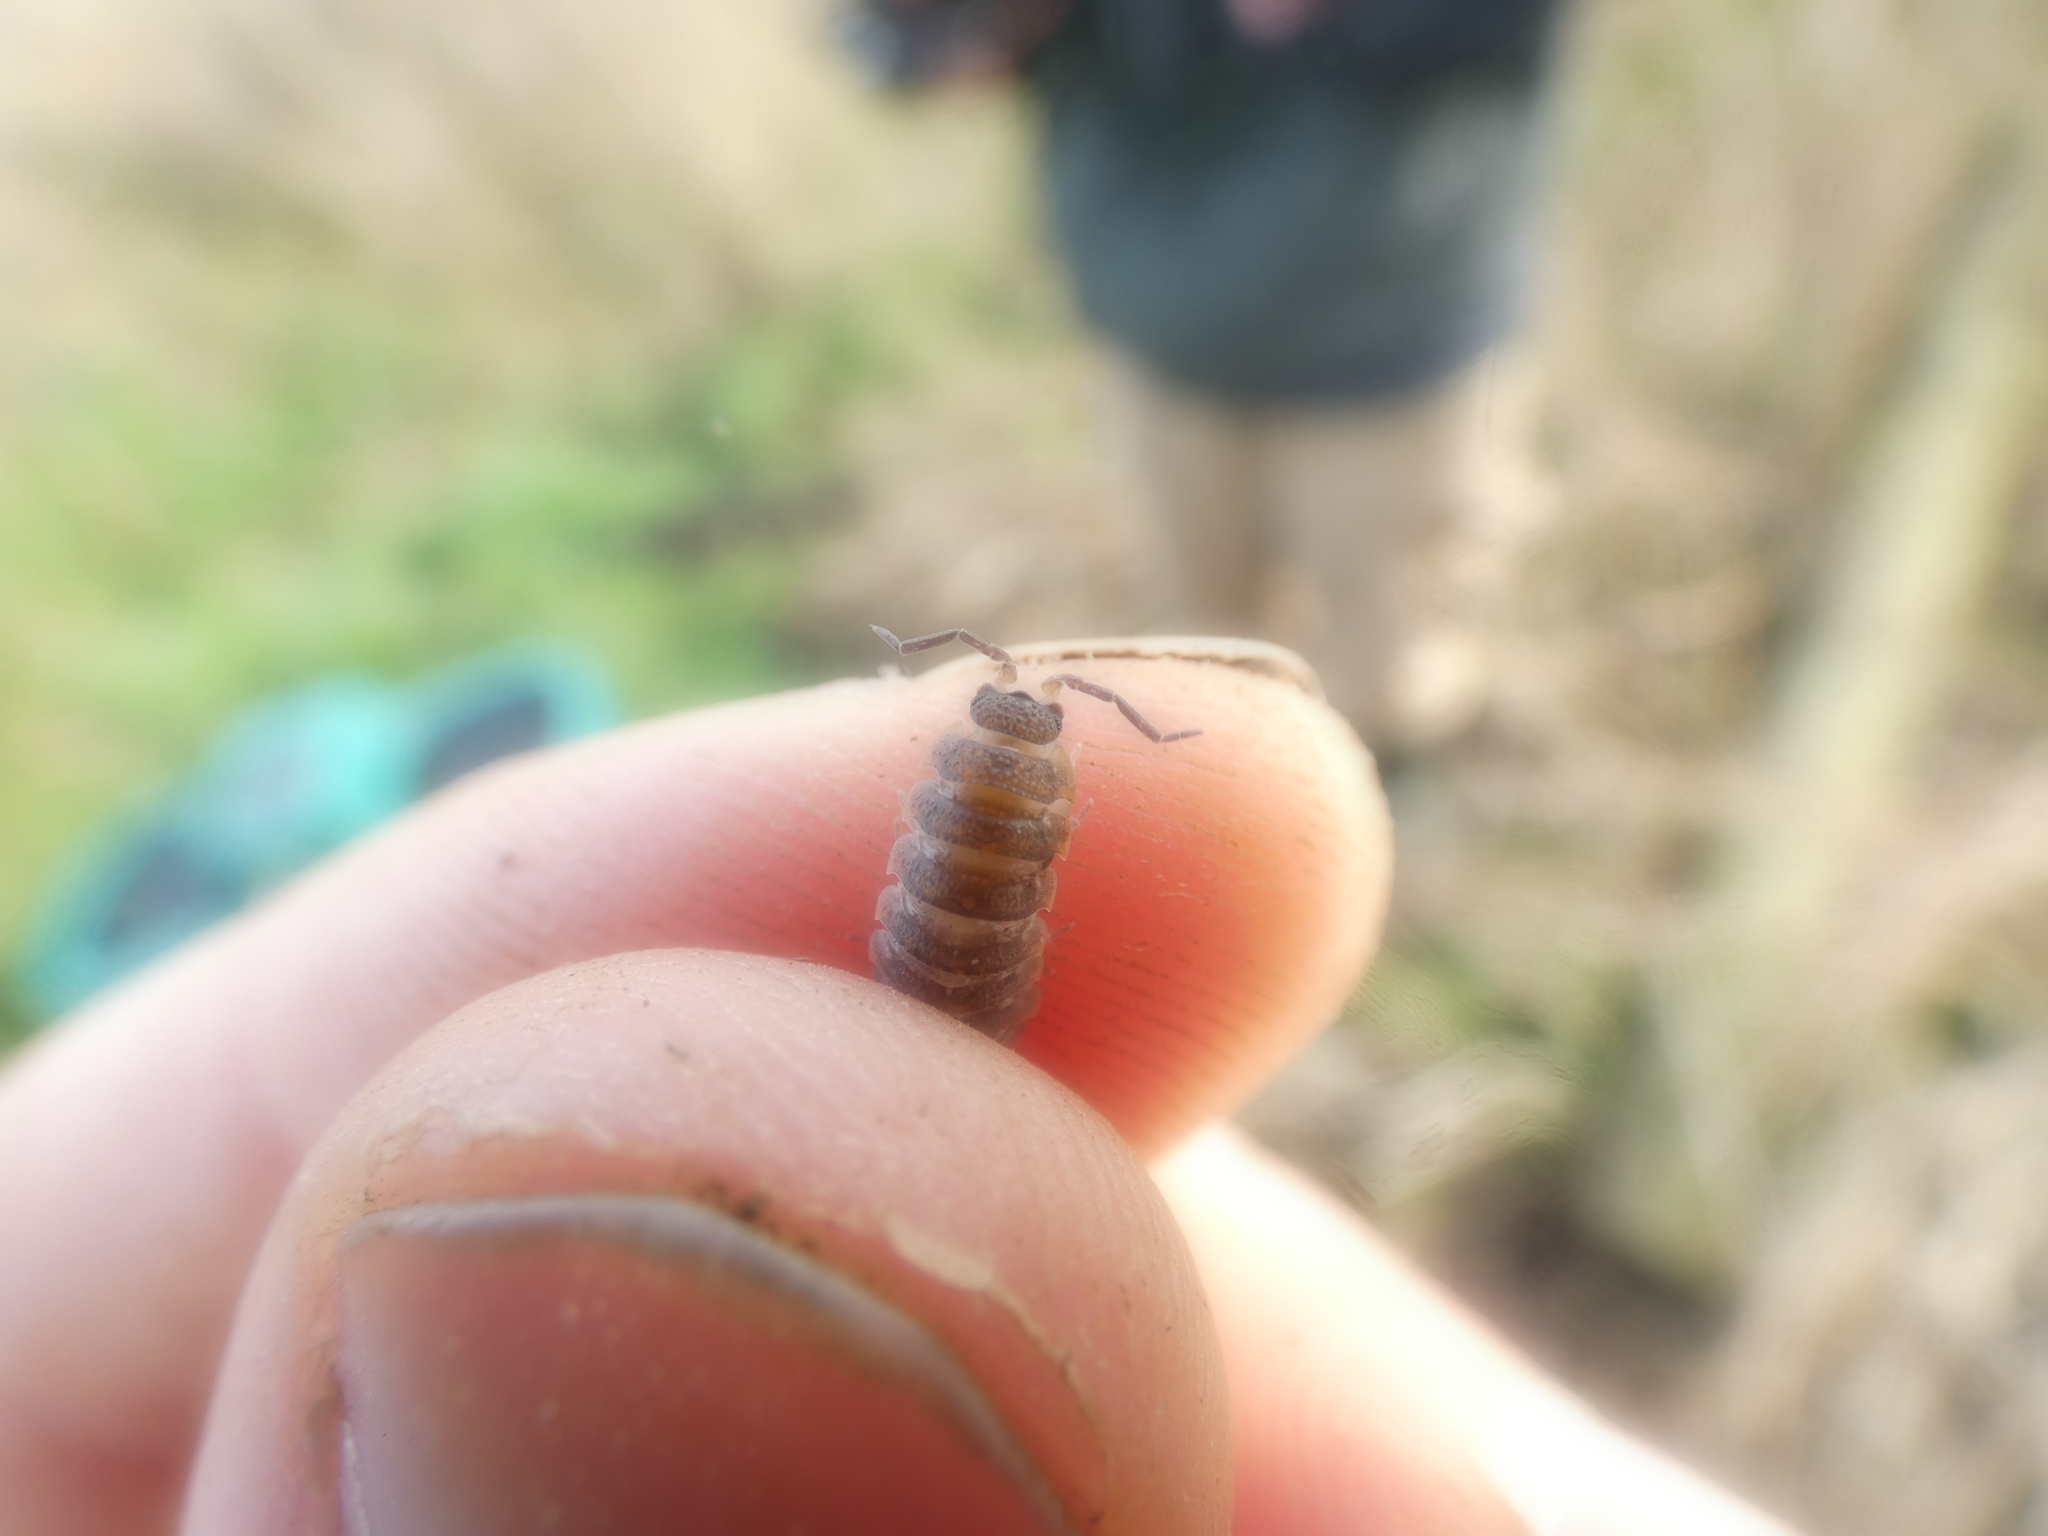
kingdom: Animalia
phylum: Arthropoda
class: Malacostraca
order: Isopoda
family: Porcellionidae
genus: Porcellio
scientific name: Porcellio scaber
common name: Common rough woodlouse
